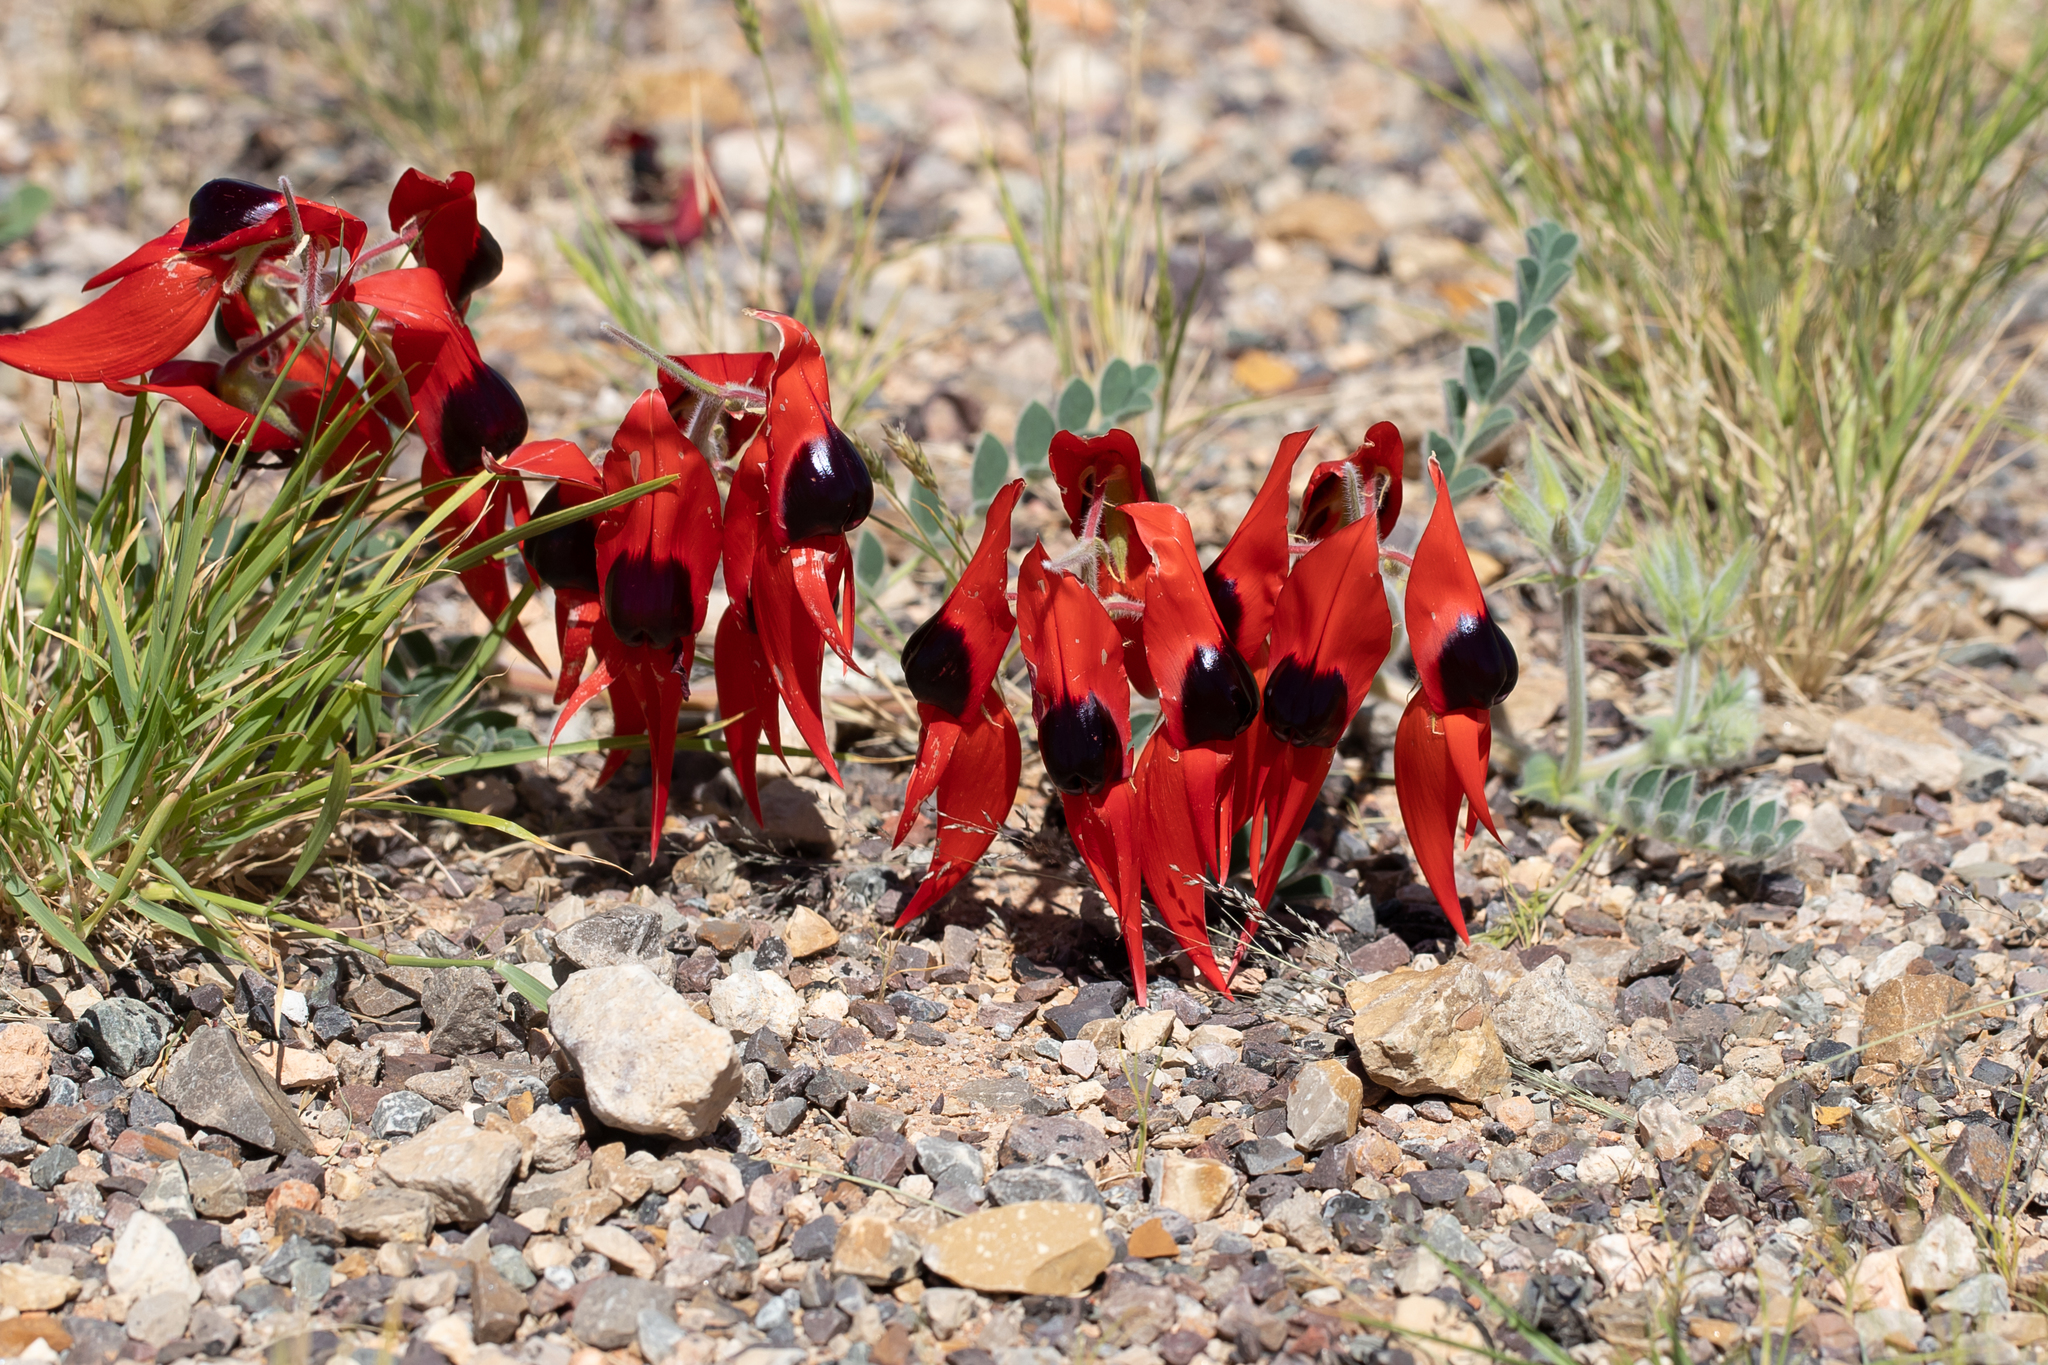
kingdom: Plantae
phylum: Tracheophyta
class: Magnoliopsida
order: Fabales
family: Fabaceae
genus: Swainsona
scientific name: Swainsona formosa
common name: Sturt's desert-pea
